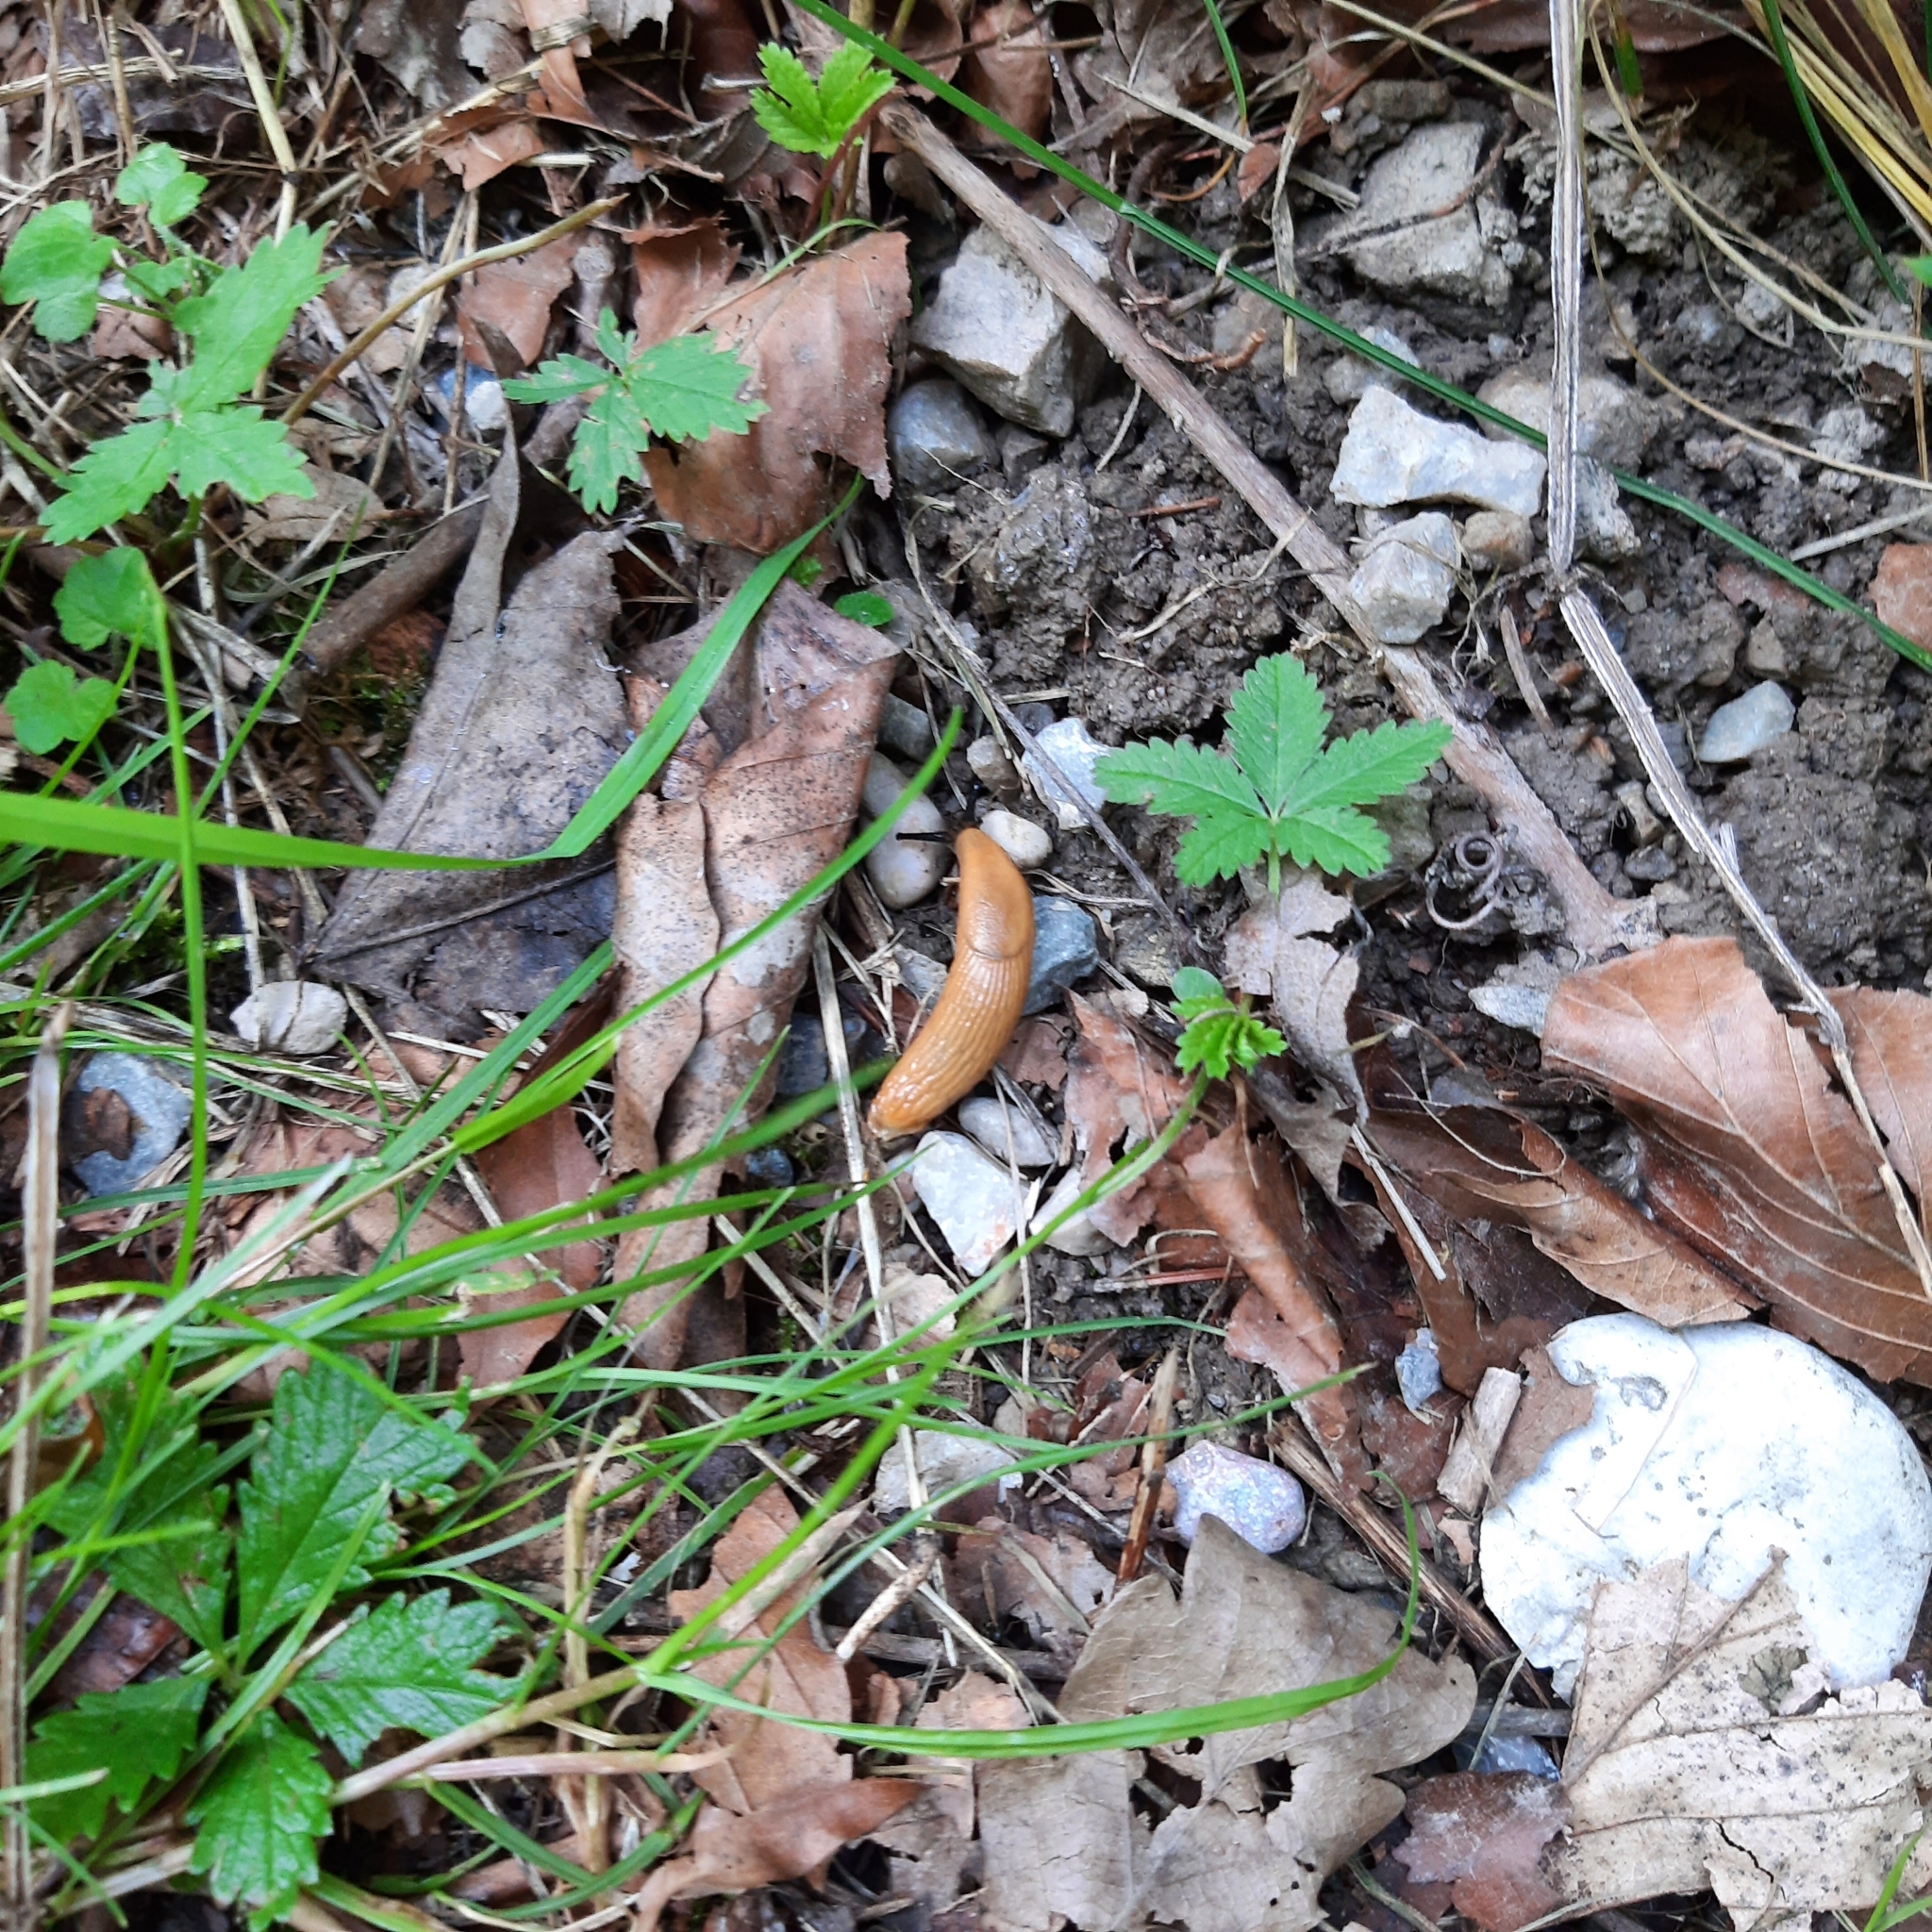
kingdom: Animalia
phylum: Mollusca
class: Gastropoda
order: Stylommatophora
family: Arionidae
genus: Arion
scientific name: Arion
